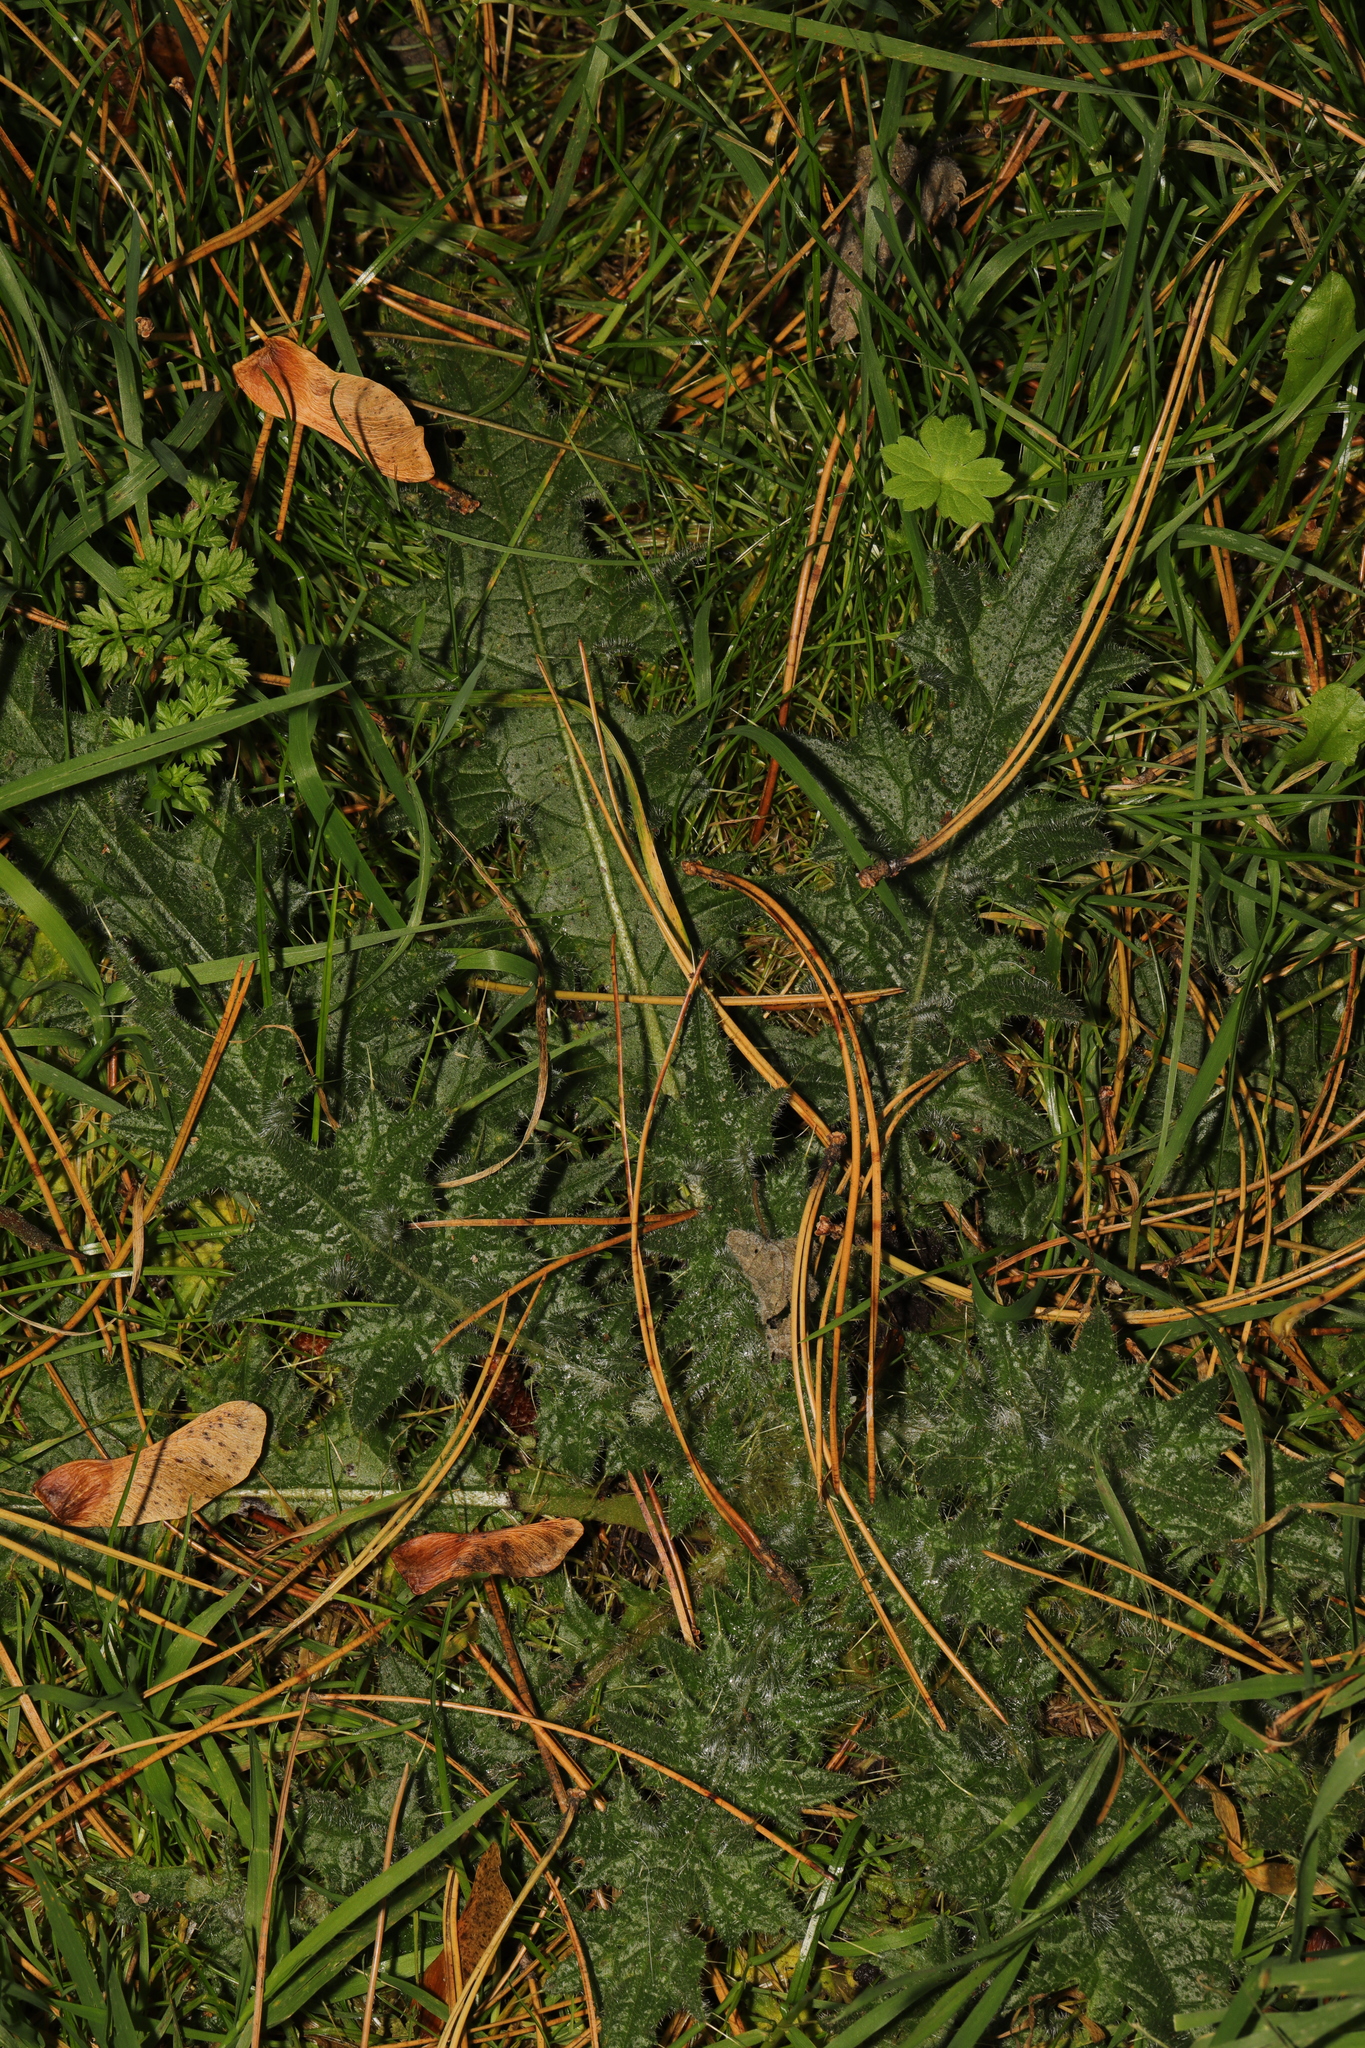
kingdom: Plantae
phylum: Tracheophyta
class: Magnoliopsida
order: Asterales
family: Asteraceae
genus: Cirsium
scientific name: Cirsium vulgare
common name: Bull thistle
